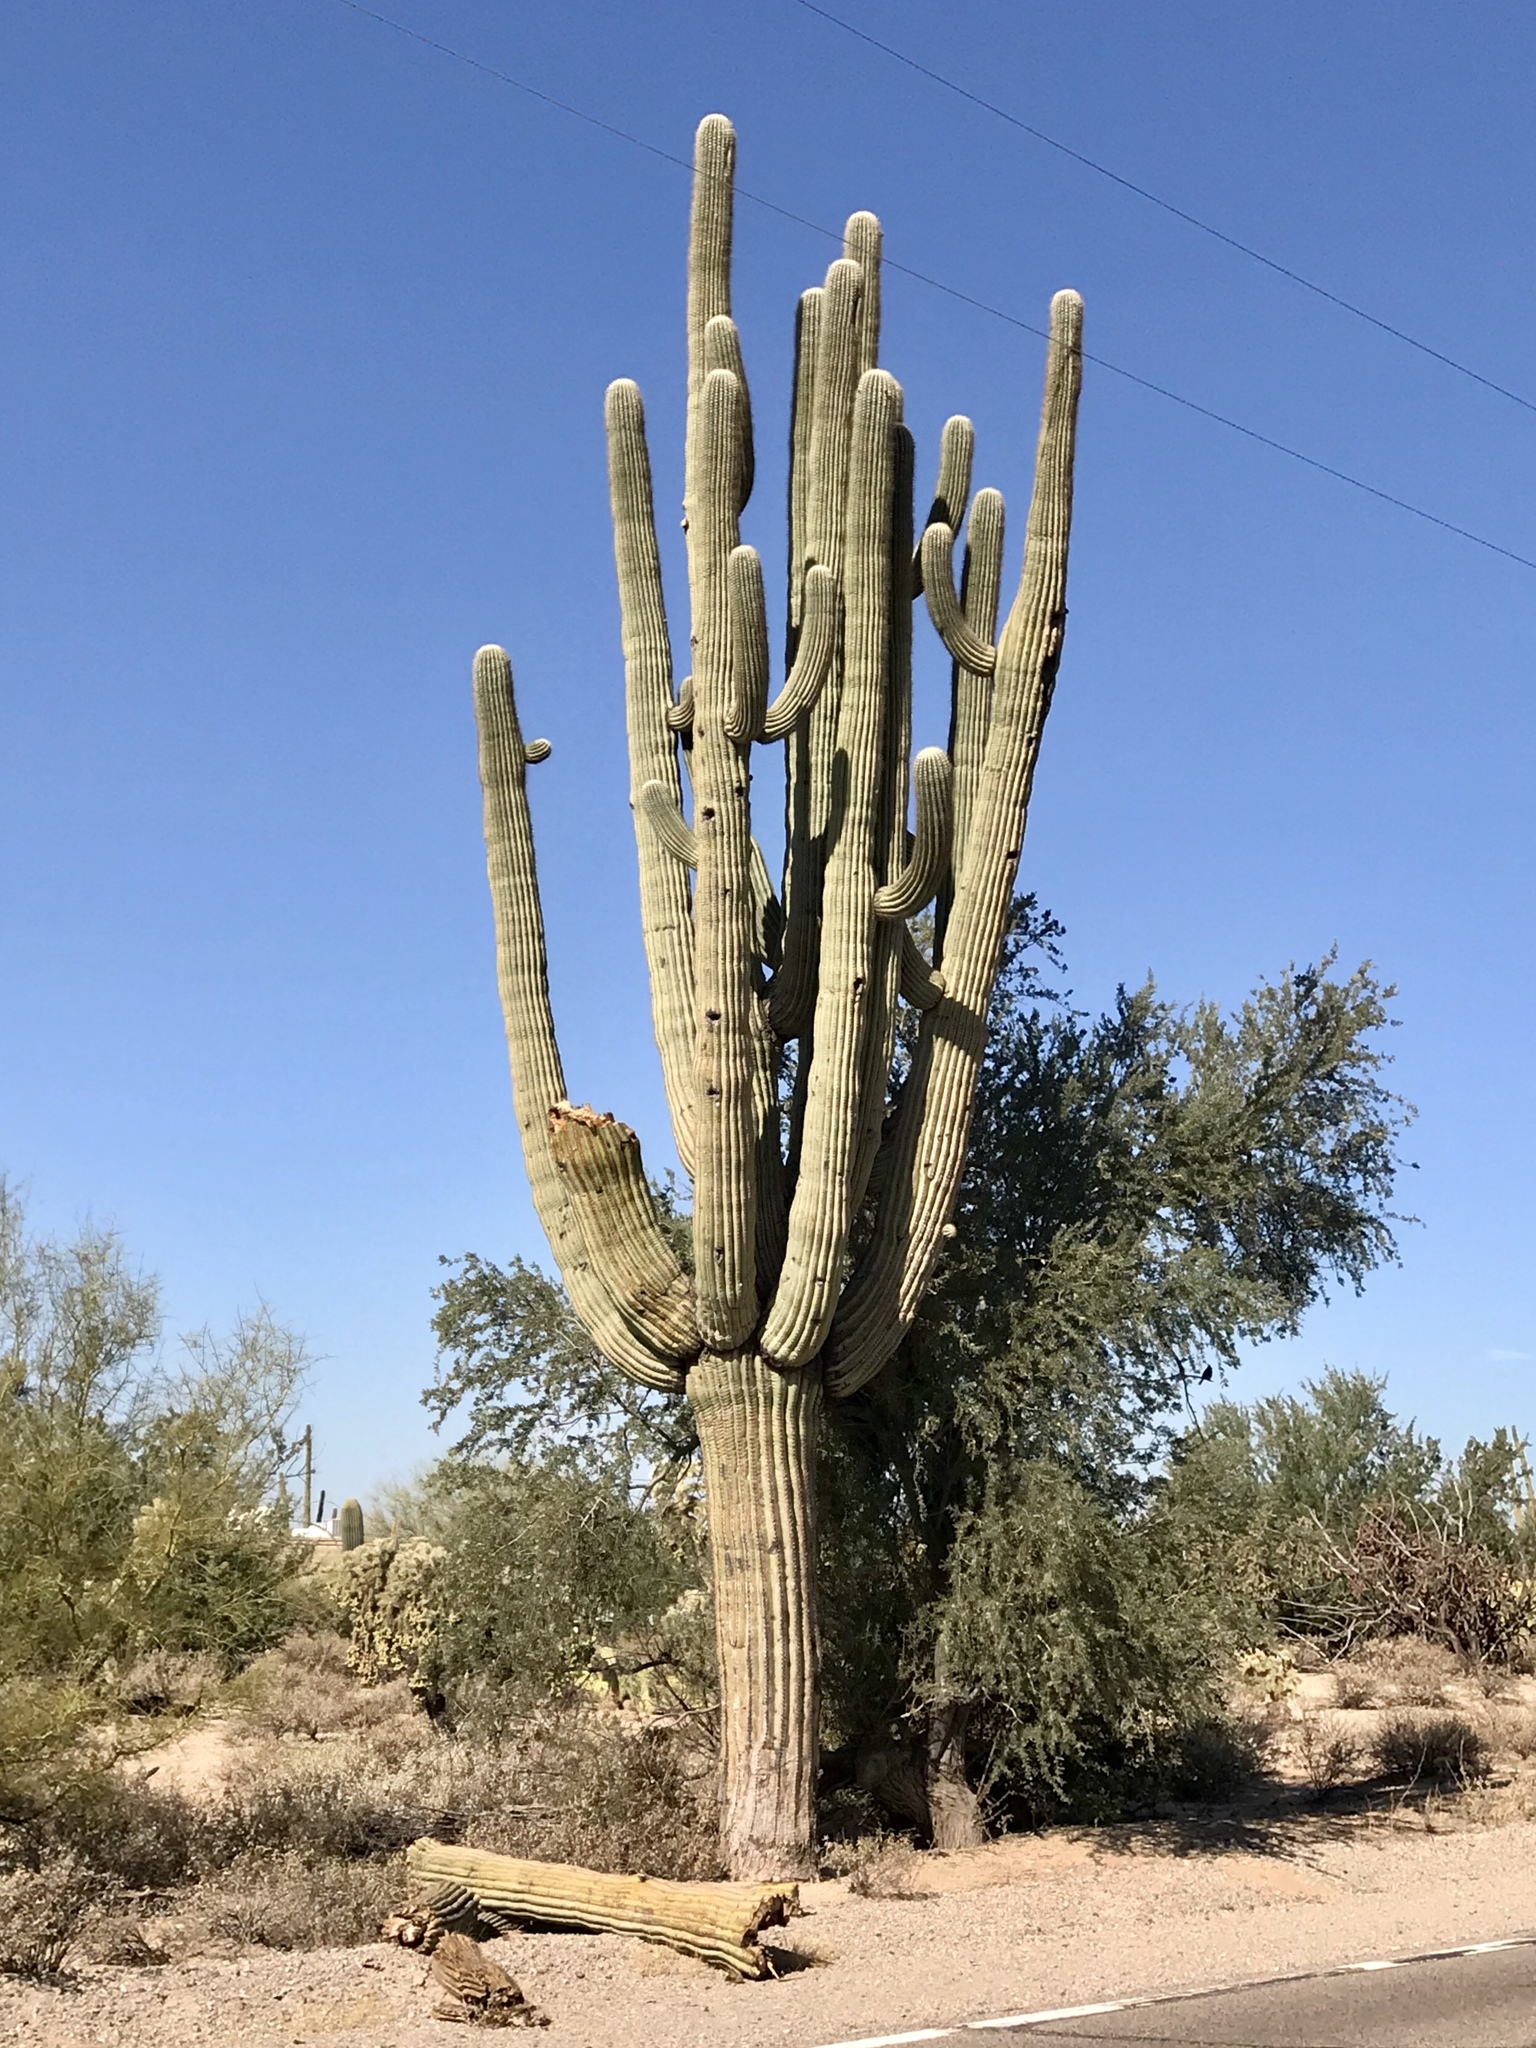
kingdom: Plantae
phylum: Tracheophyta
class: Magnoliopsida
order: Caryophyllales
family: Cactaceae
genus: Carnegiea
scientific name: Carnegiea gigantea
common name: Saguaro
